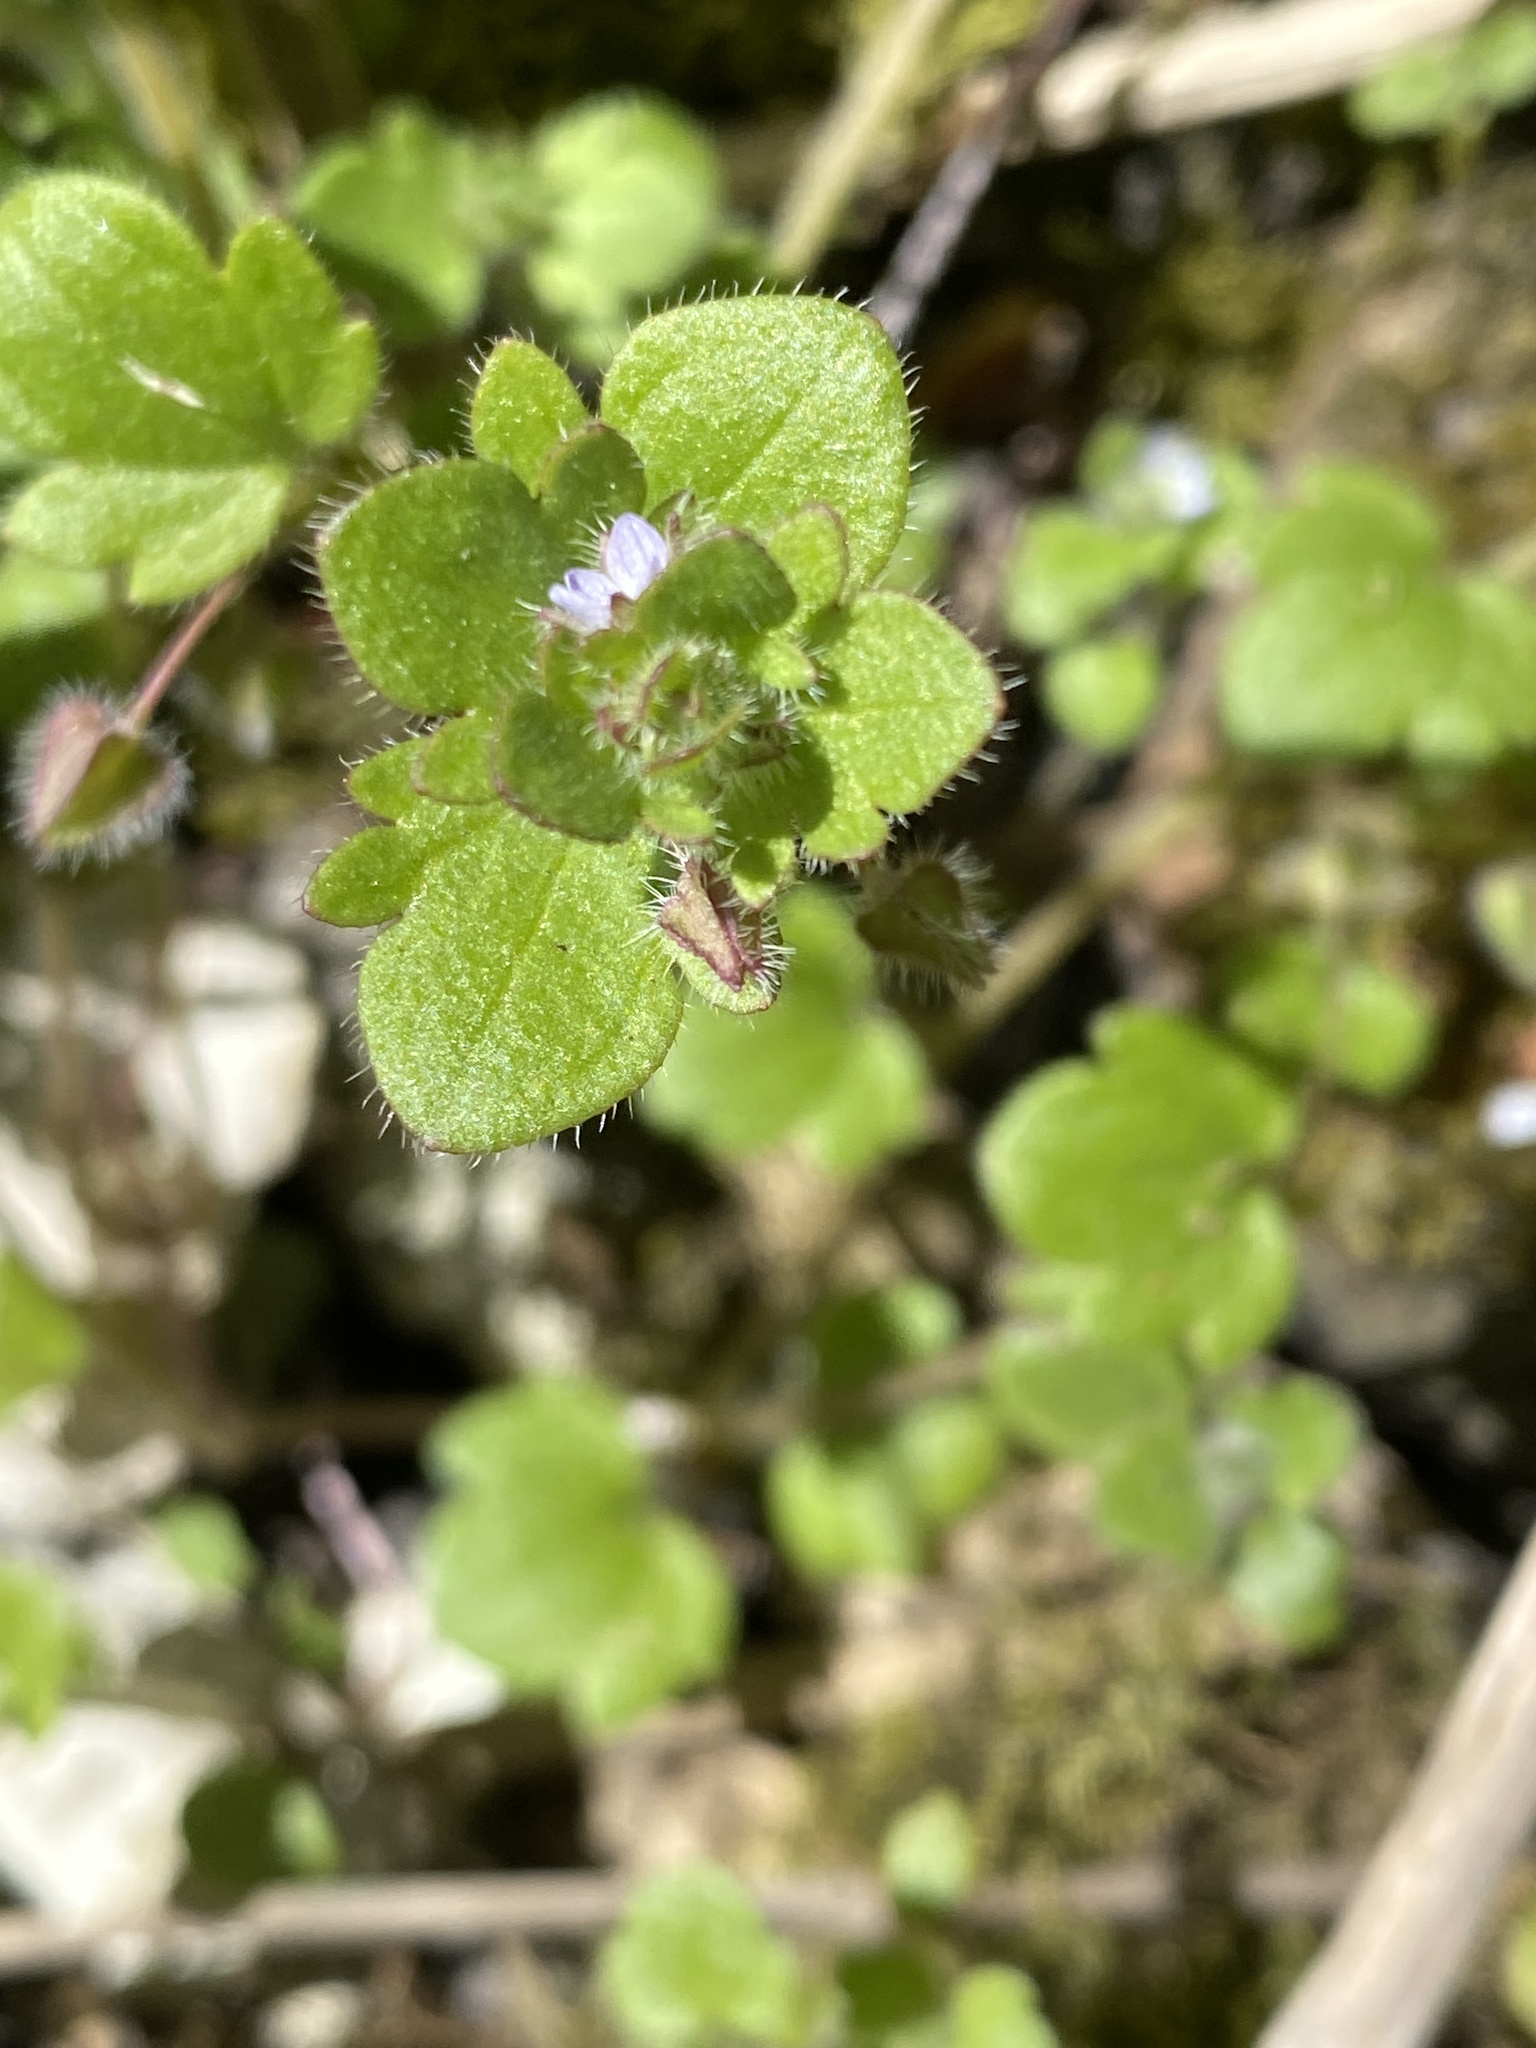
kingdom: Plantae
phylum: Tracheophyta
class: Magnoliopsida
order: Lamiales
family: Plantaginaceae
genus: Veronica
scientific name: Veronica hederifolia
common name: Ivy-leaved speedwell
